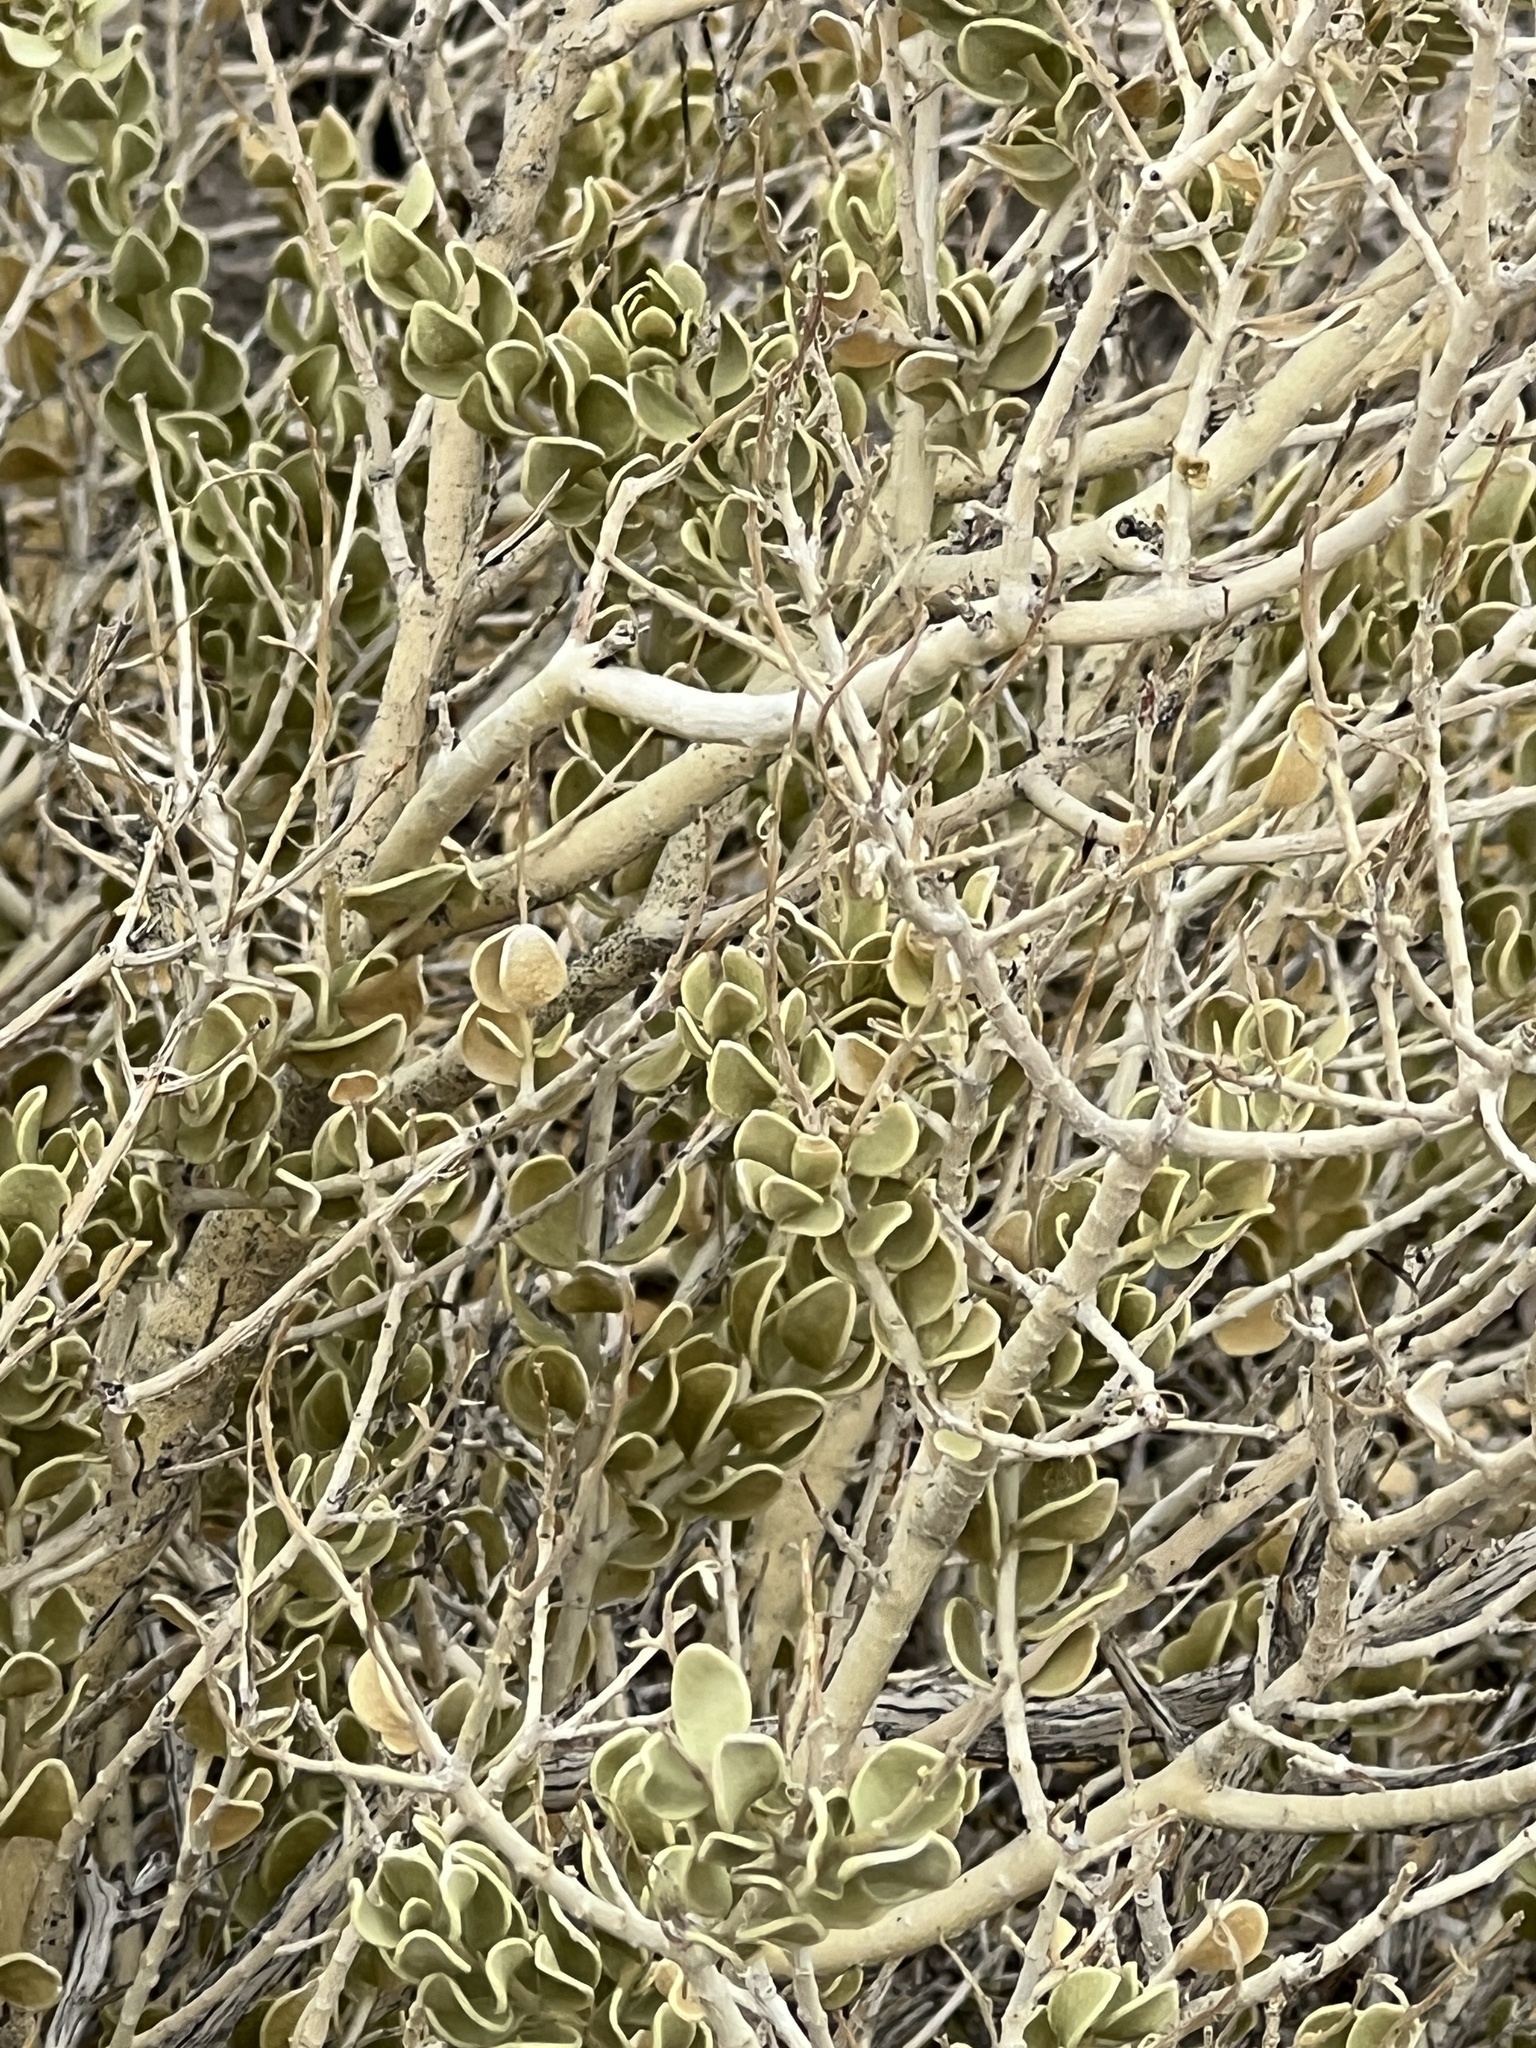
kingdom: Plantae
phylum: Tracheophyta
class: Magnoliopsida
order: Celastrales
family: Celastraceae
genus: Mortonia
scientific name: Mortonia utahensis
